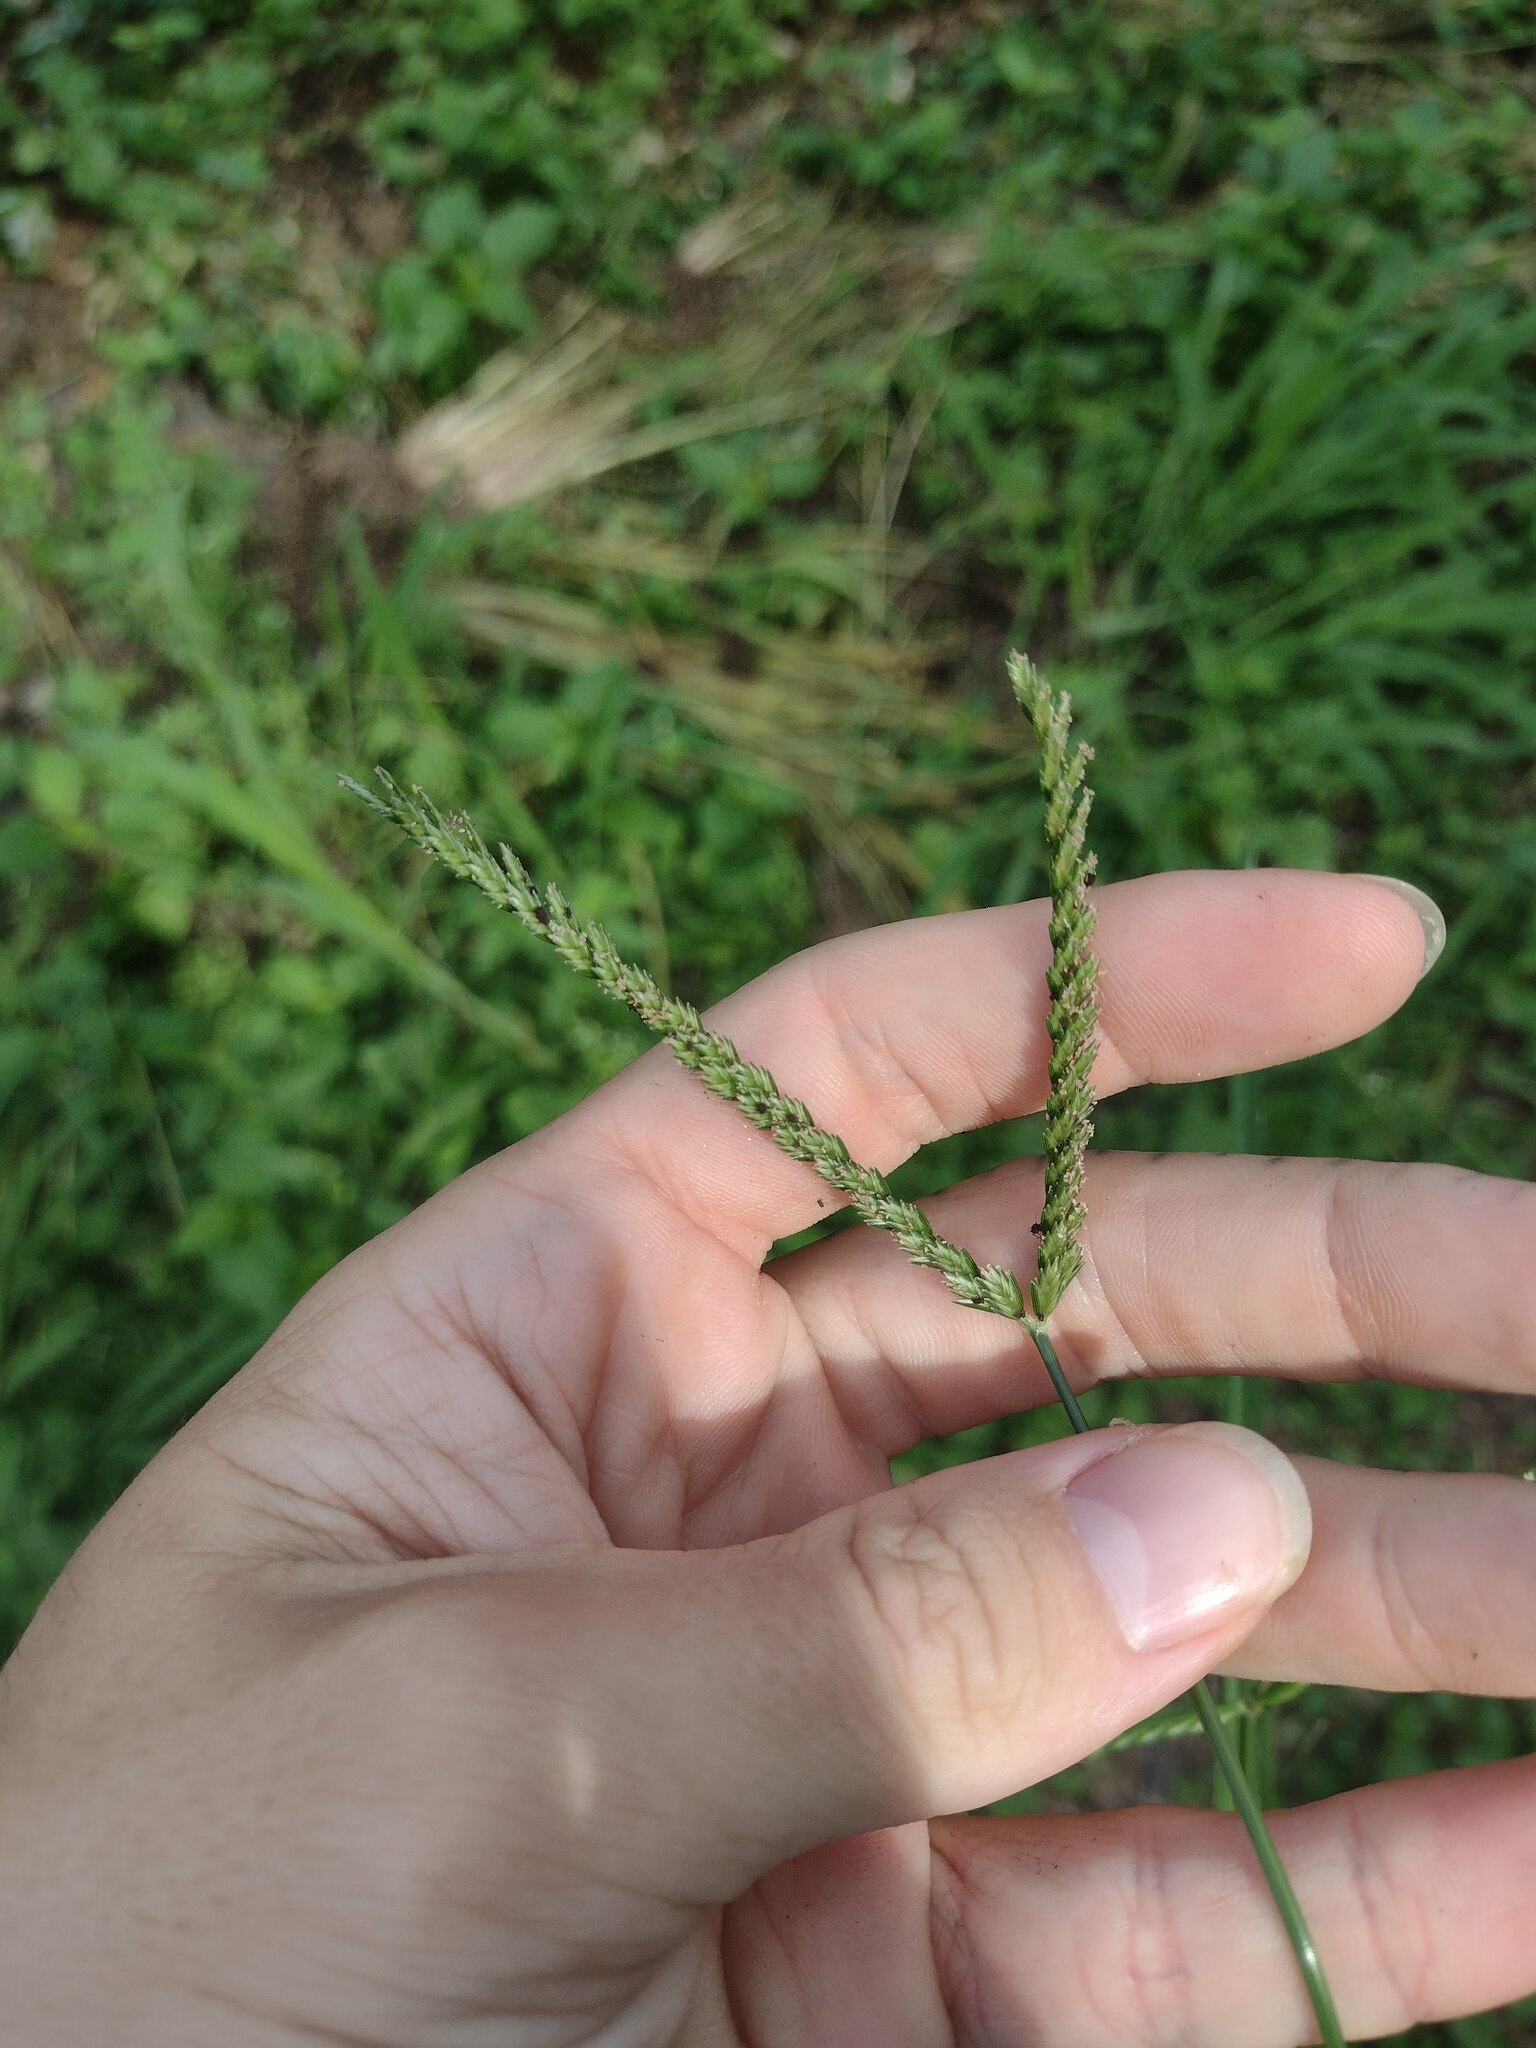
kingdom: Plantae
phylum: Tracheophyta
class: Liliopsida
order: Poales
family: Poaceae
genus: Eleusine
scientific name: Eleusine indica
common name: Yard-grass
